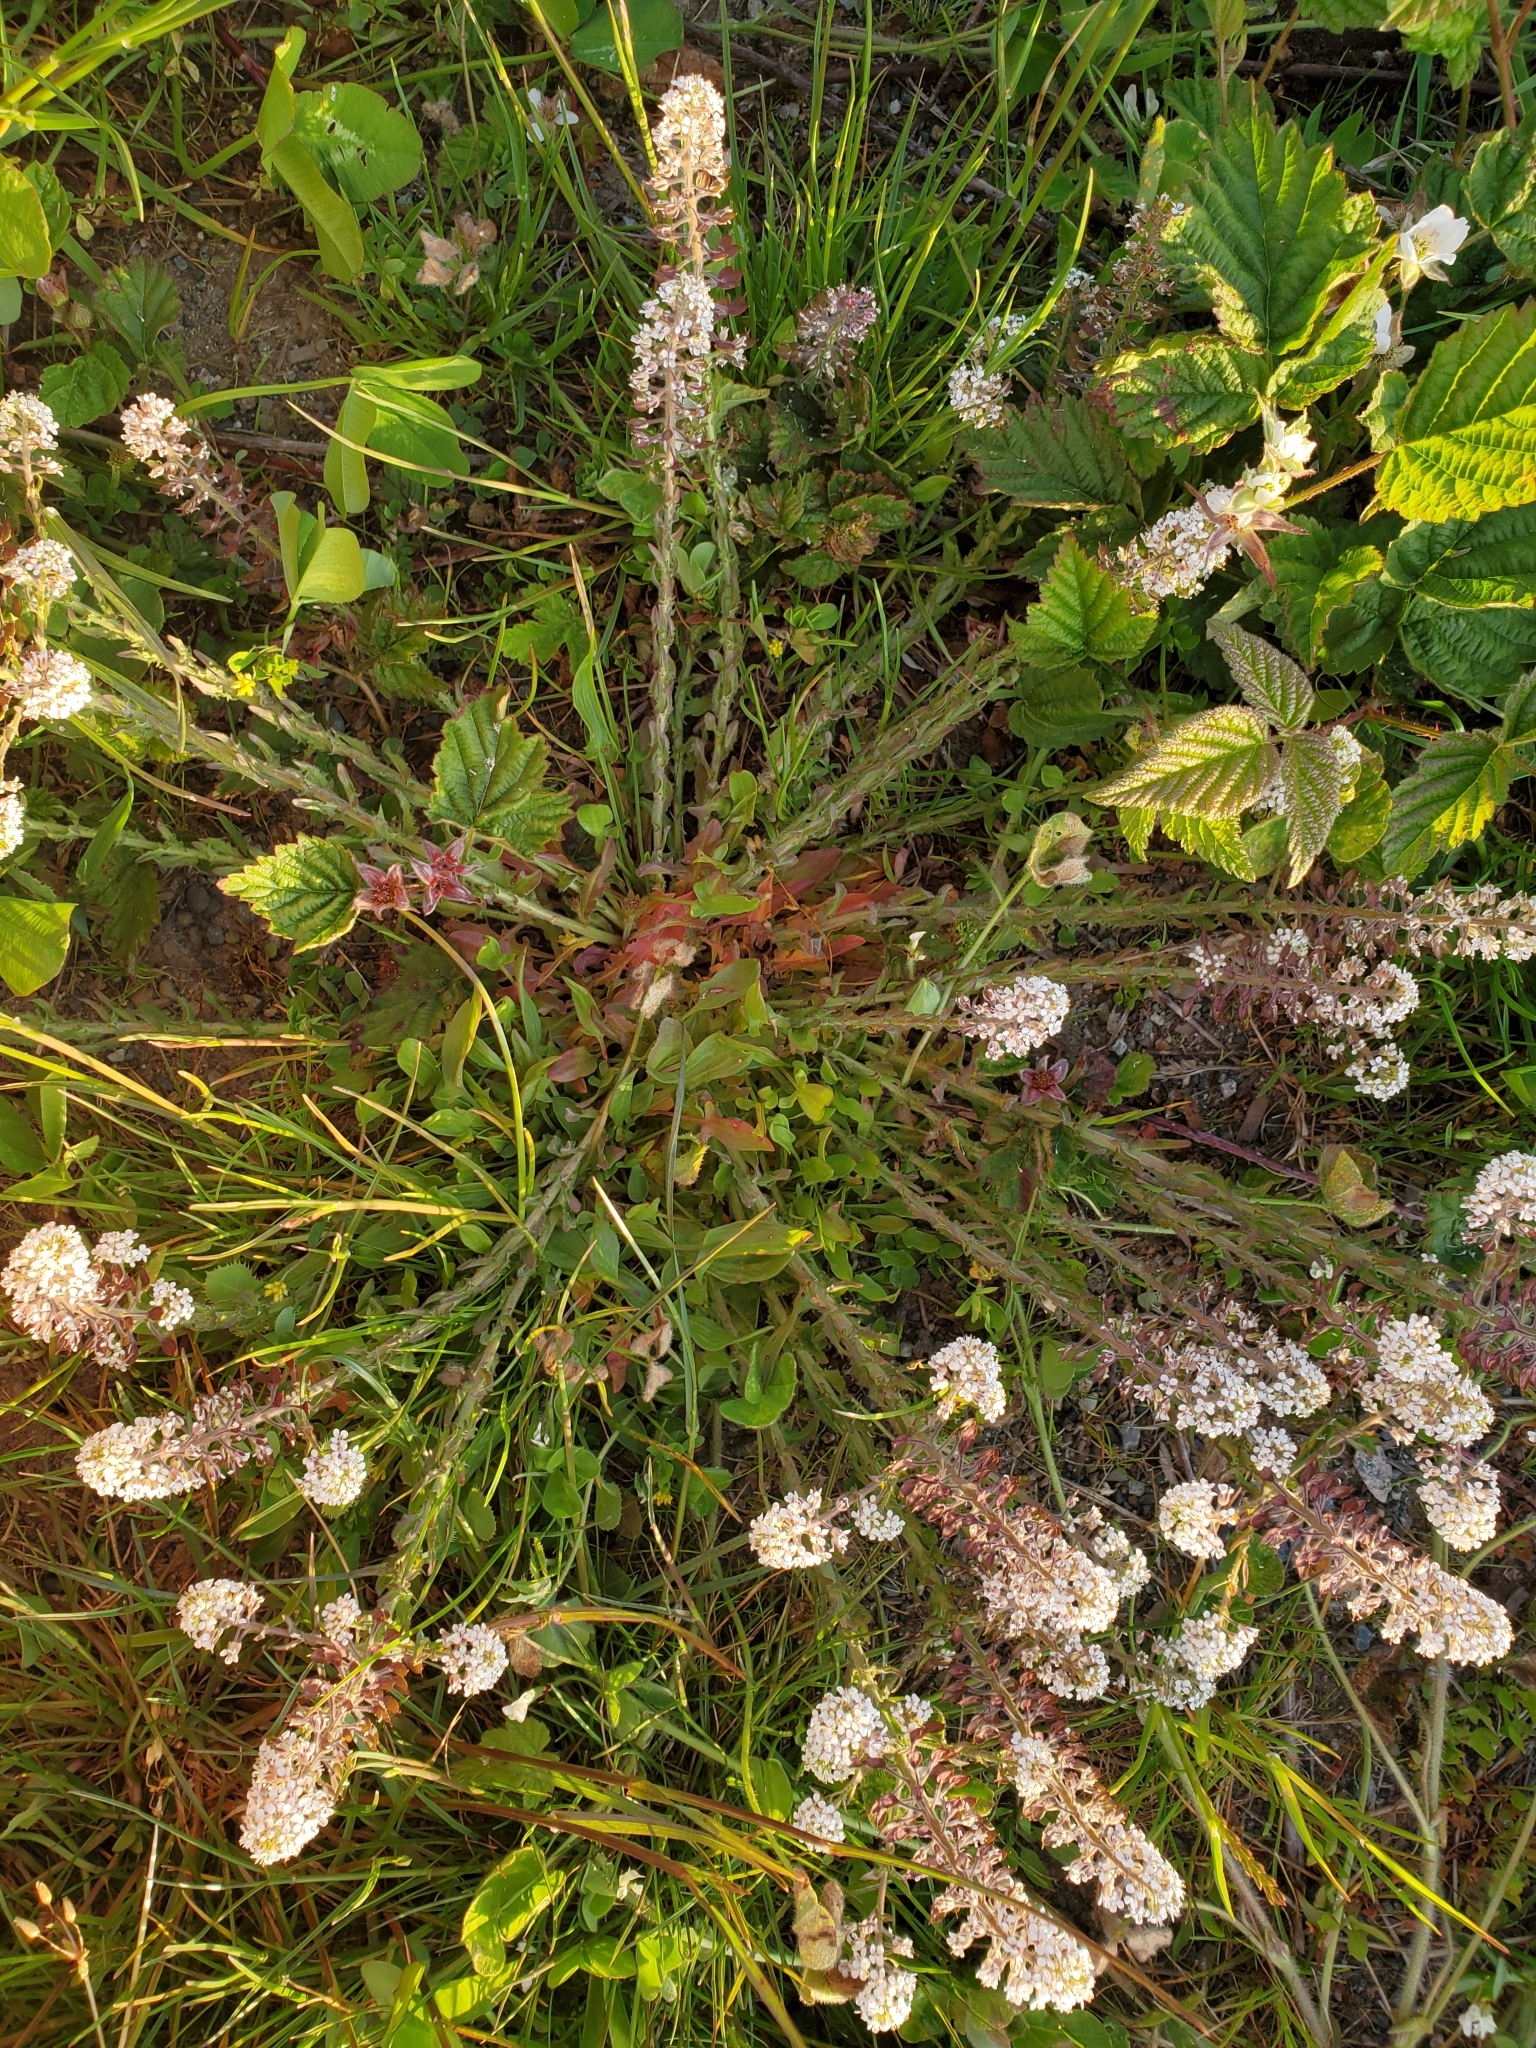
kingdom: Plantae
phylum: Tracheophyta
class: Magnoliopsida
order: Brassicales
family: Brassicaceae
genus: Lepidium
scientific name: Lepidium heterophyllum
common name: Smith's pepperwort
